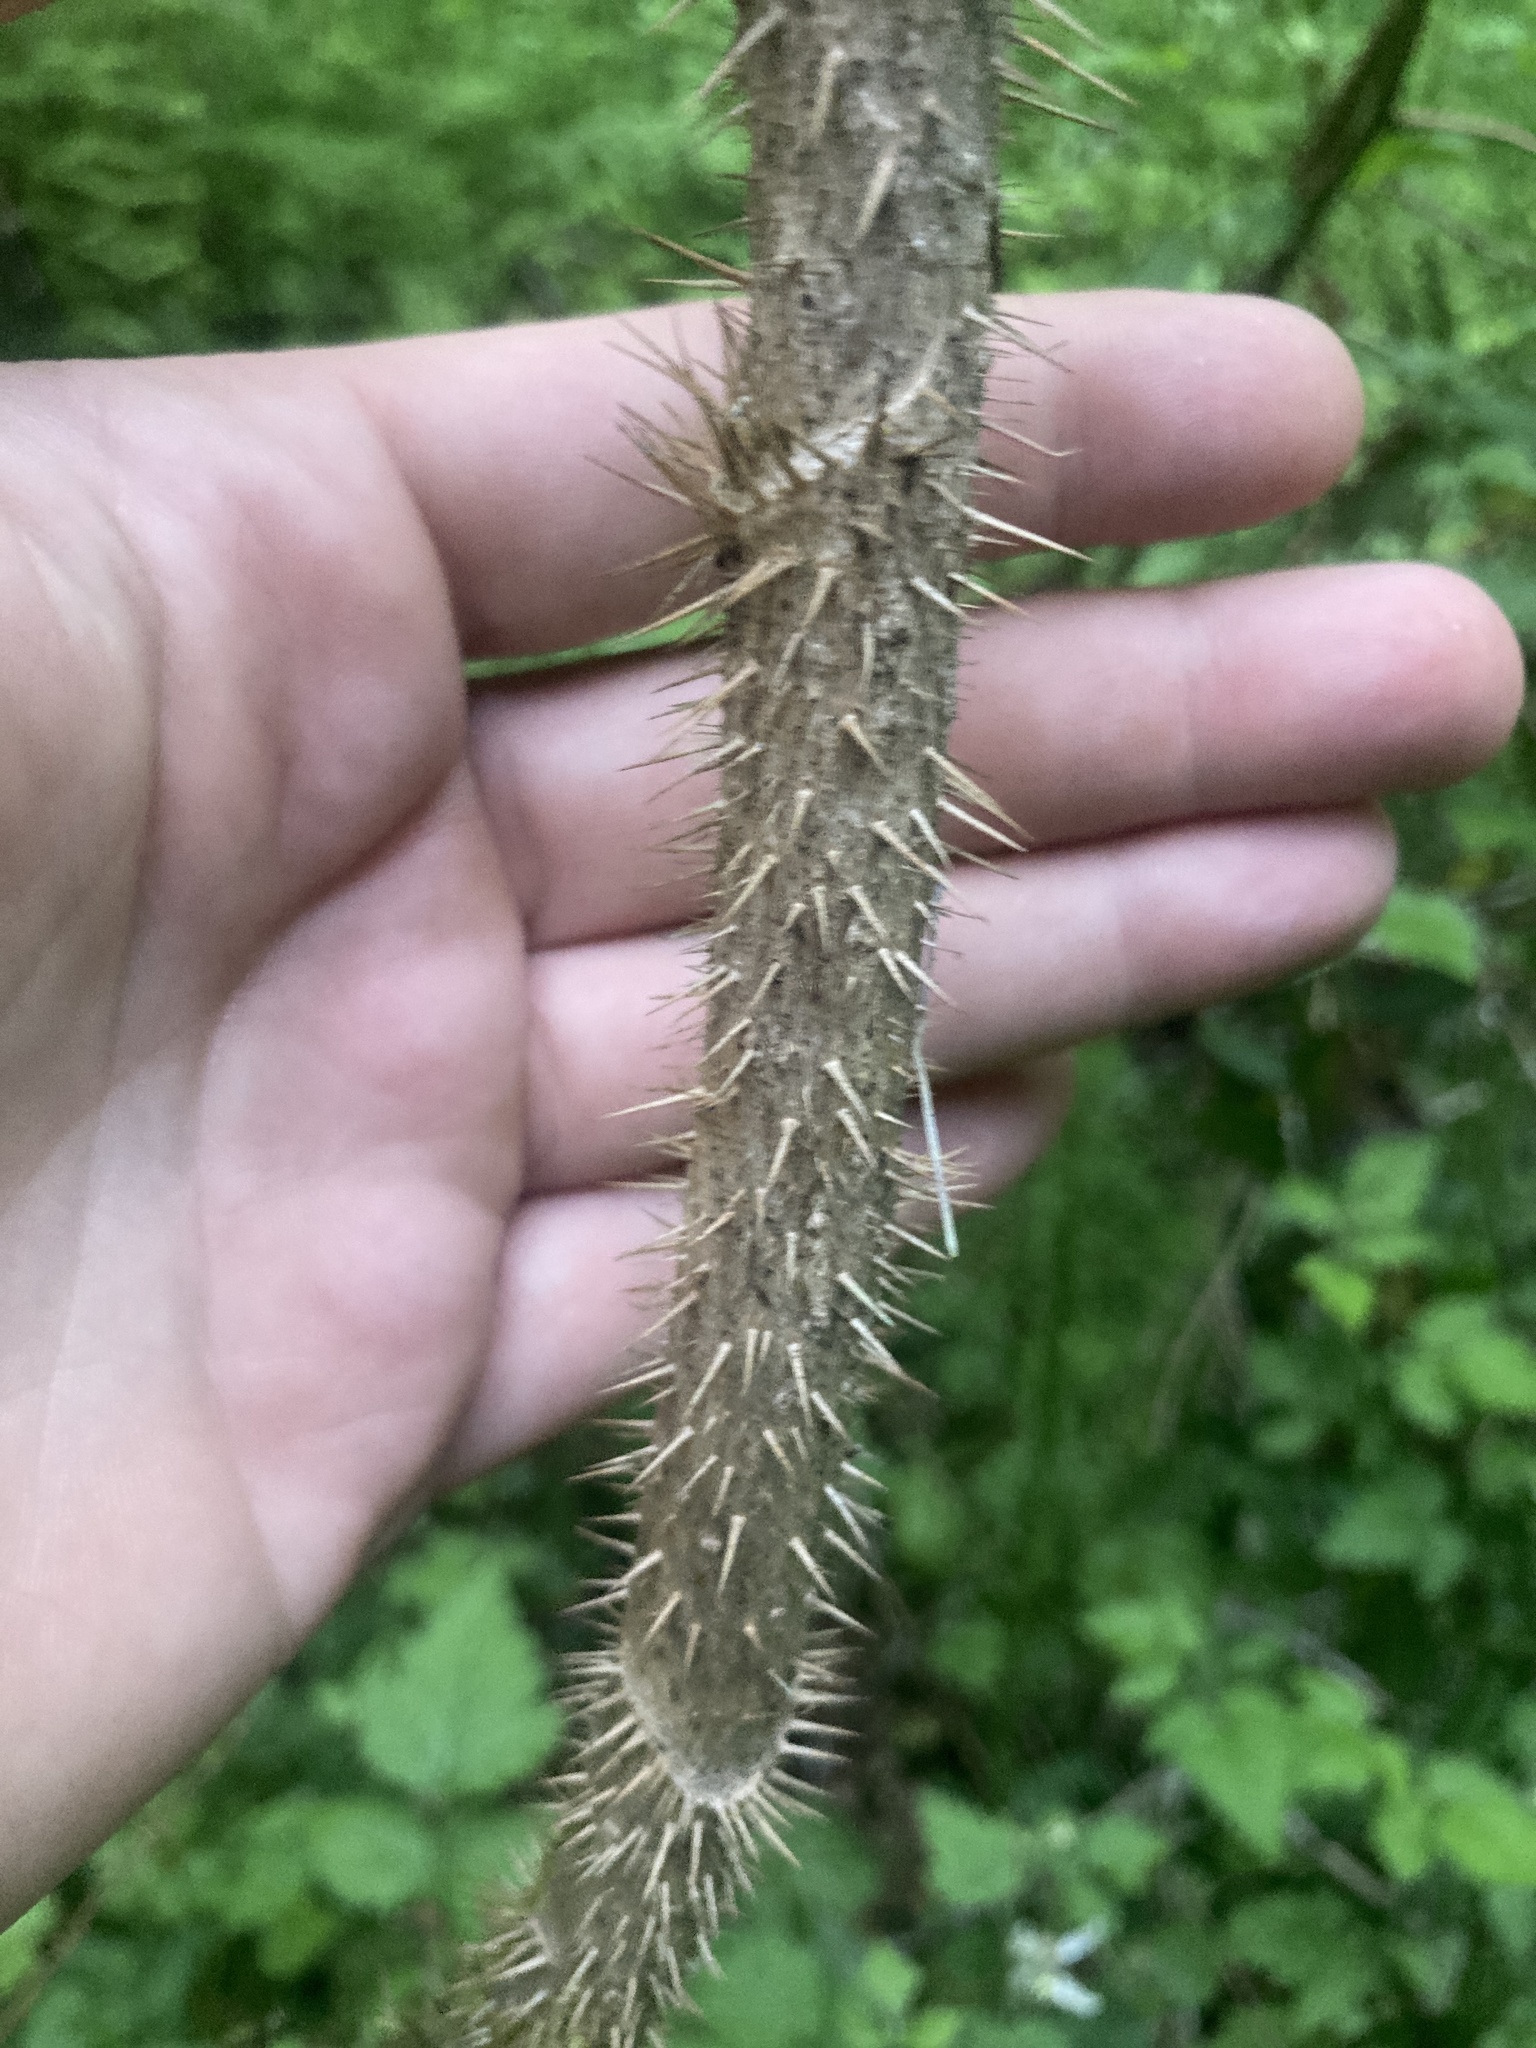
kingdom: Plantae
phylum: Tracheophyta
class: Magnoliopsida
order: Apiales
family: Araliaceae
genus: Oplopanax
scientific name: Oplopanax horridus
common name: Devil's walking-stick
